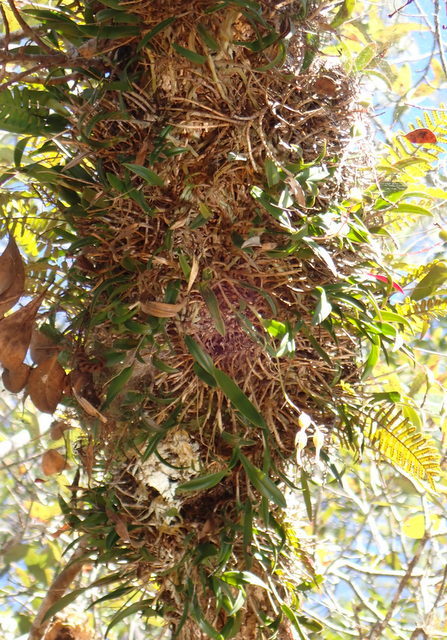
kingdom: Plantae
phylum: Tracheophyta
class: Liliopsida
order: Asparagales
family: Orchidaceae
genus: Epidendrum
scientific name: Epidendrum conopseum
